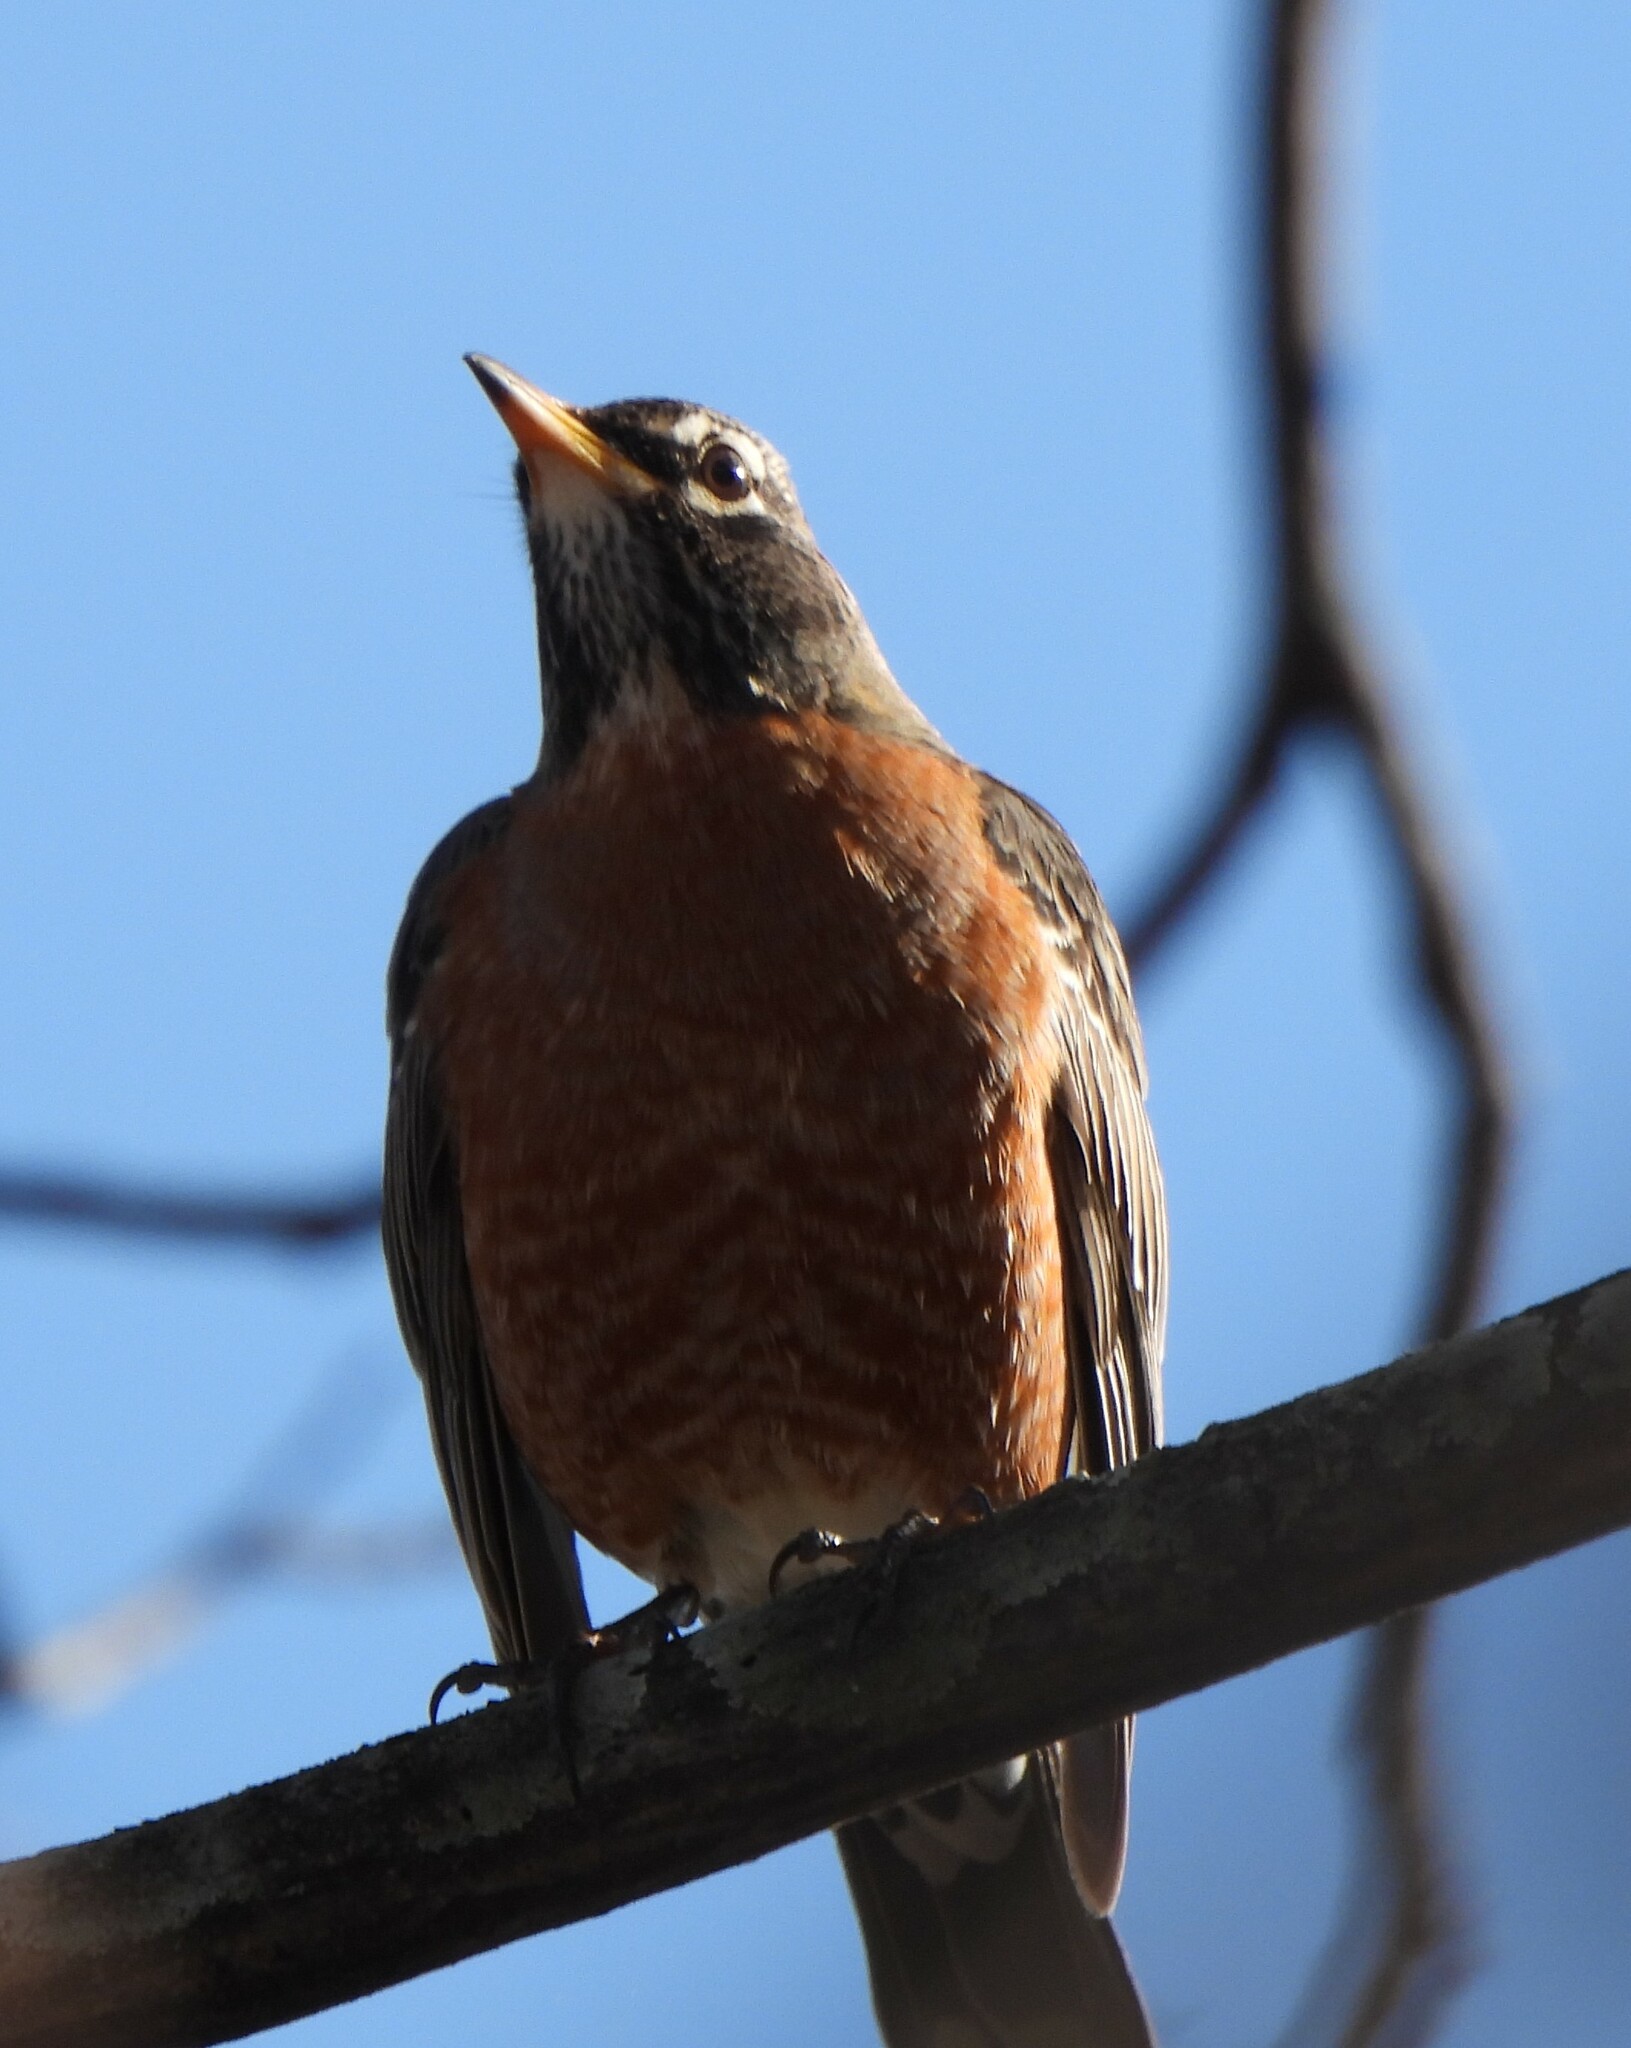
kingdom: Animalia
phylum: Chordata
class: Aves
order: Passeriformes
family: Turdidae
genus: Turdus
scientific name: Turdus migratorius
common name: American robin
